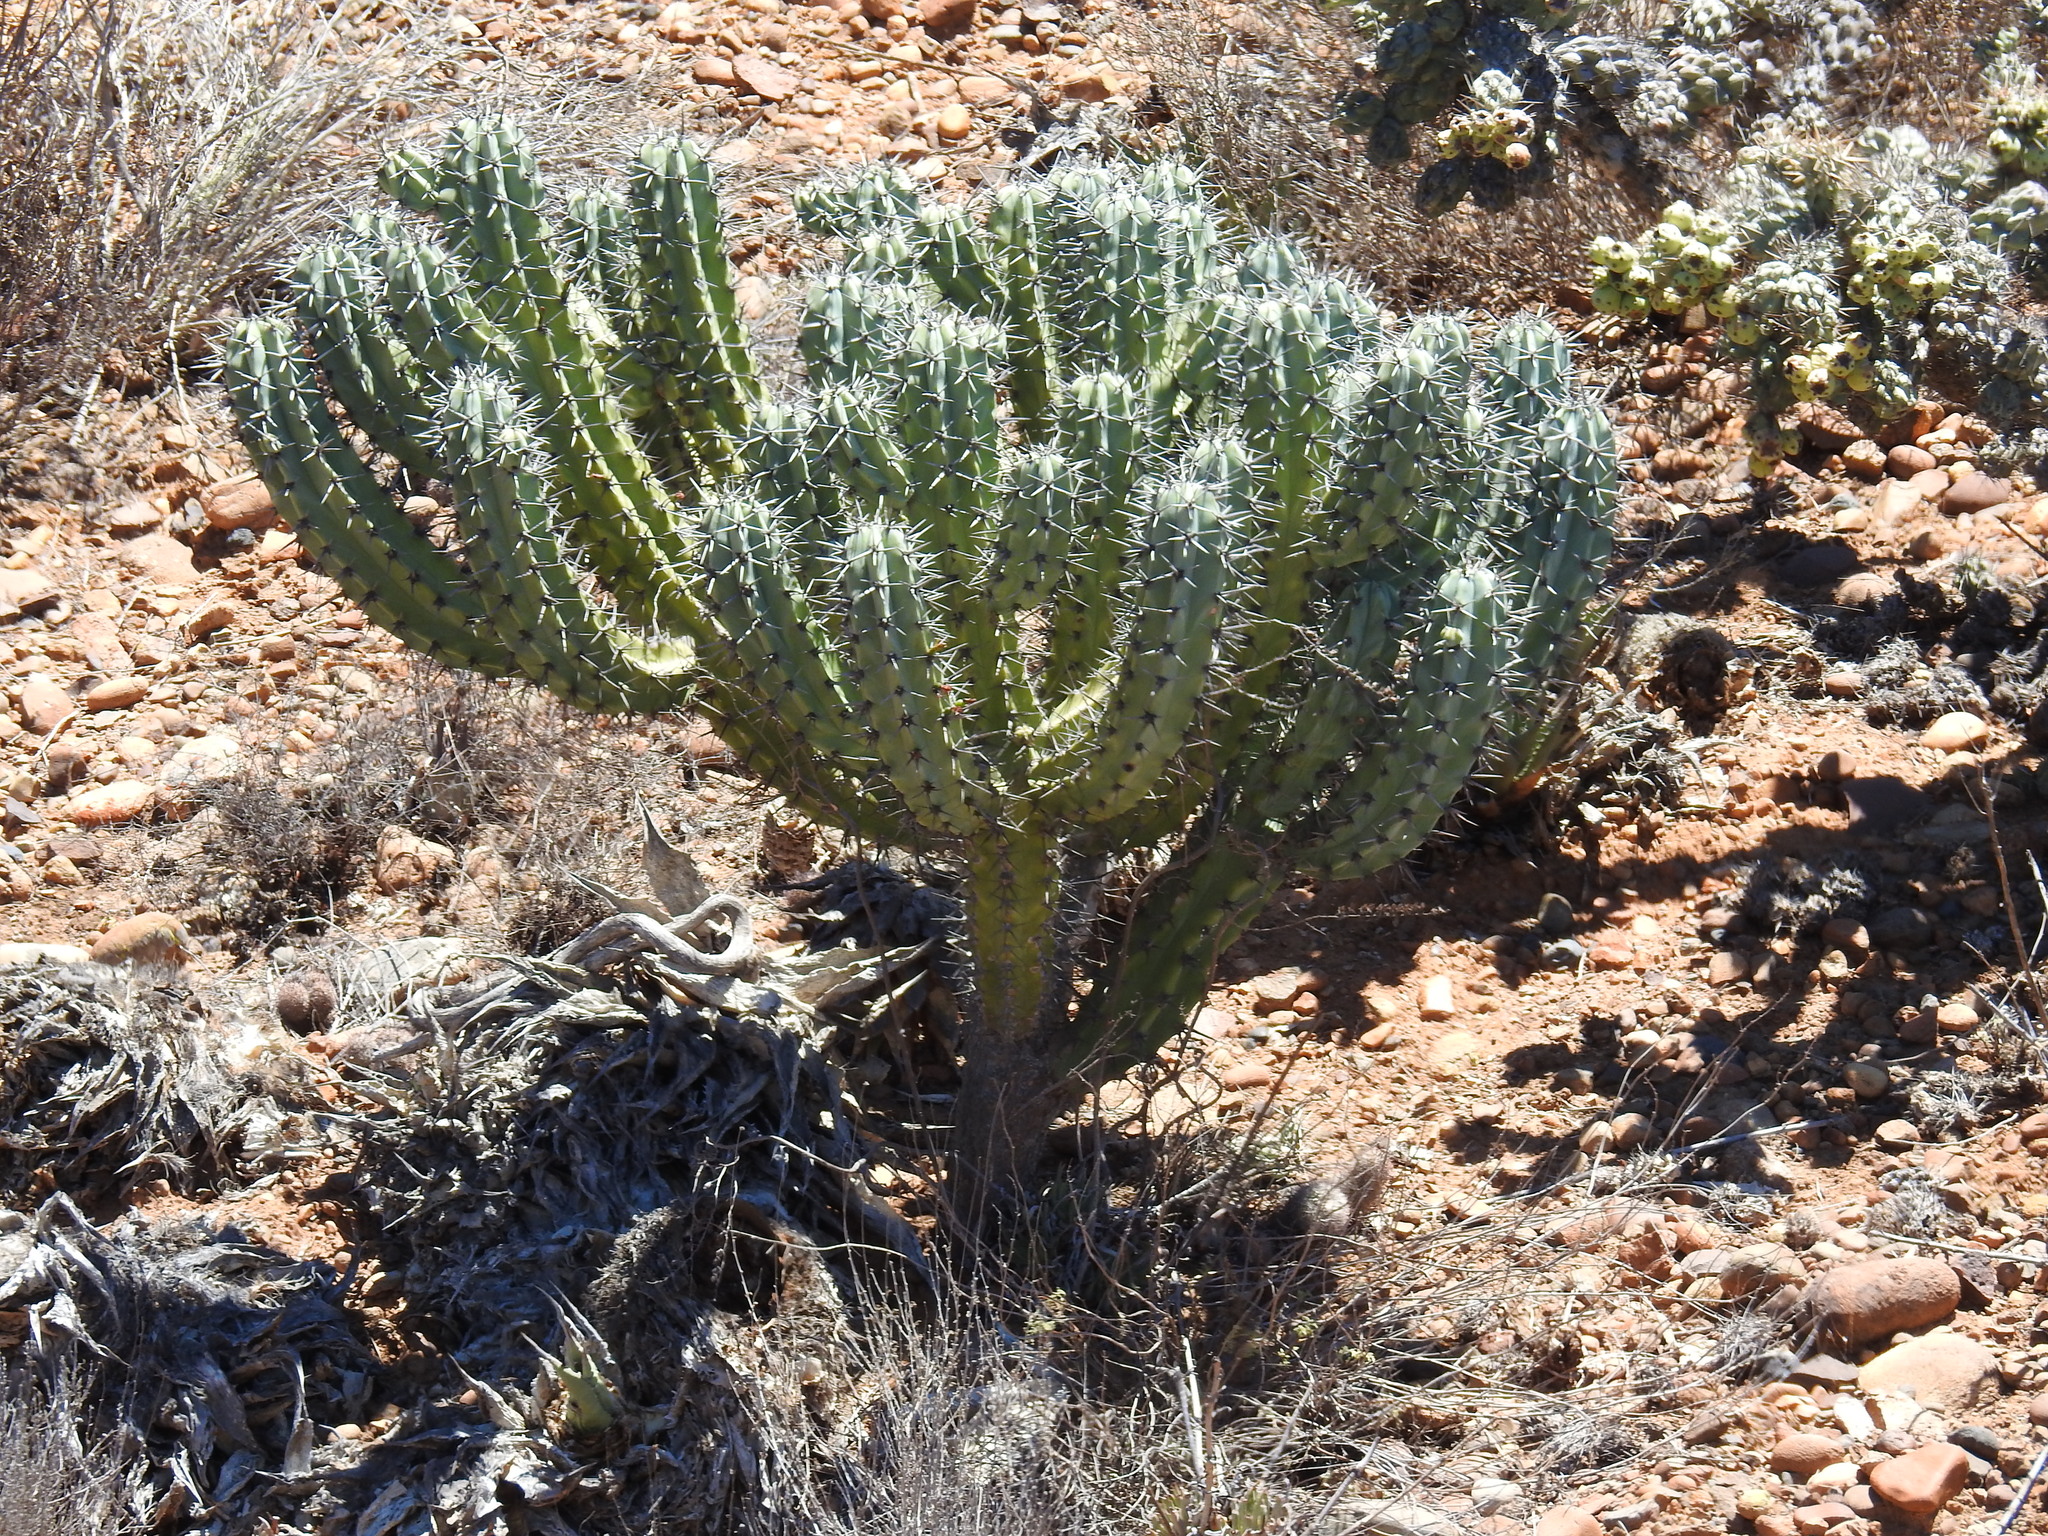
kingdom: Plantae
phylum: Tracheophyta
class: Magnoliopsida
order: Caryophyllales
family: Cactaceae
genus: Myrtillocactus
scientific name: Myrtillocactus cochal
